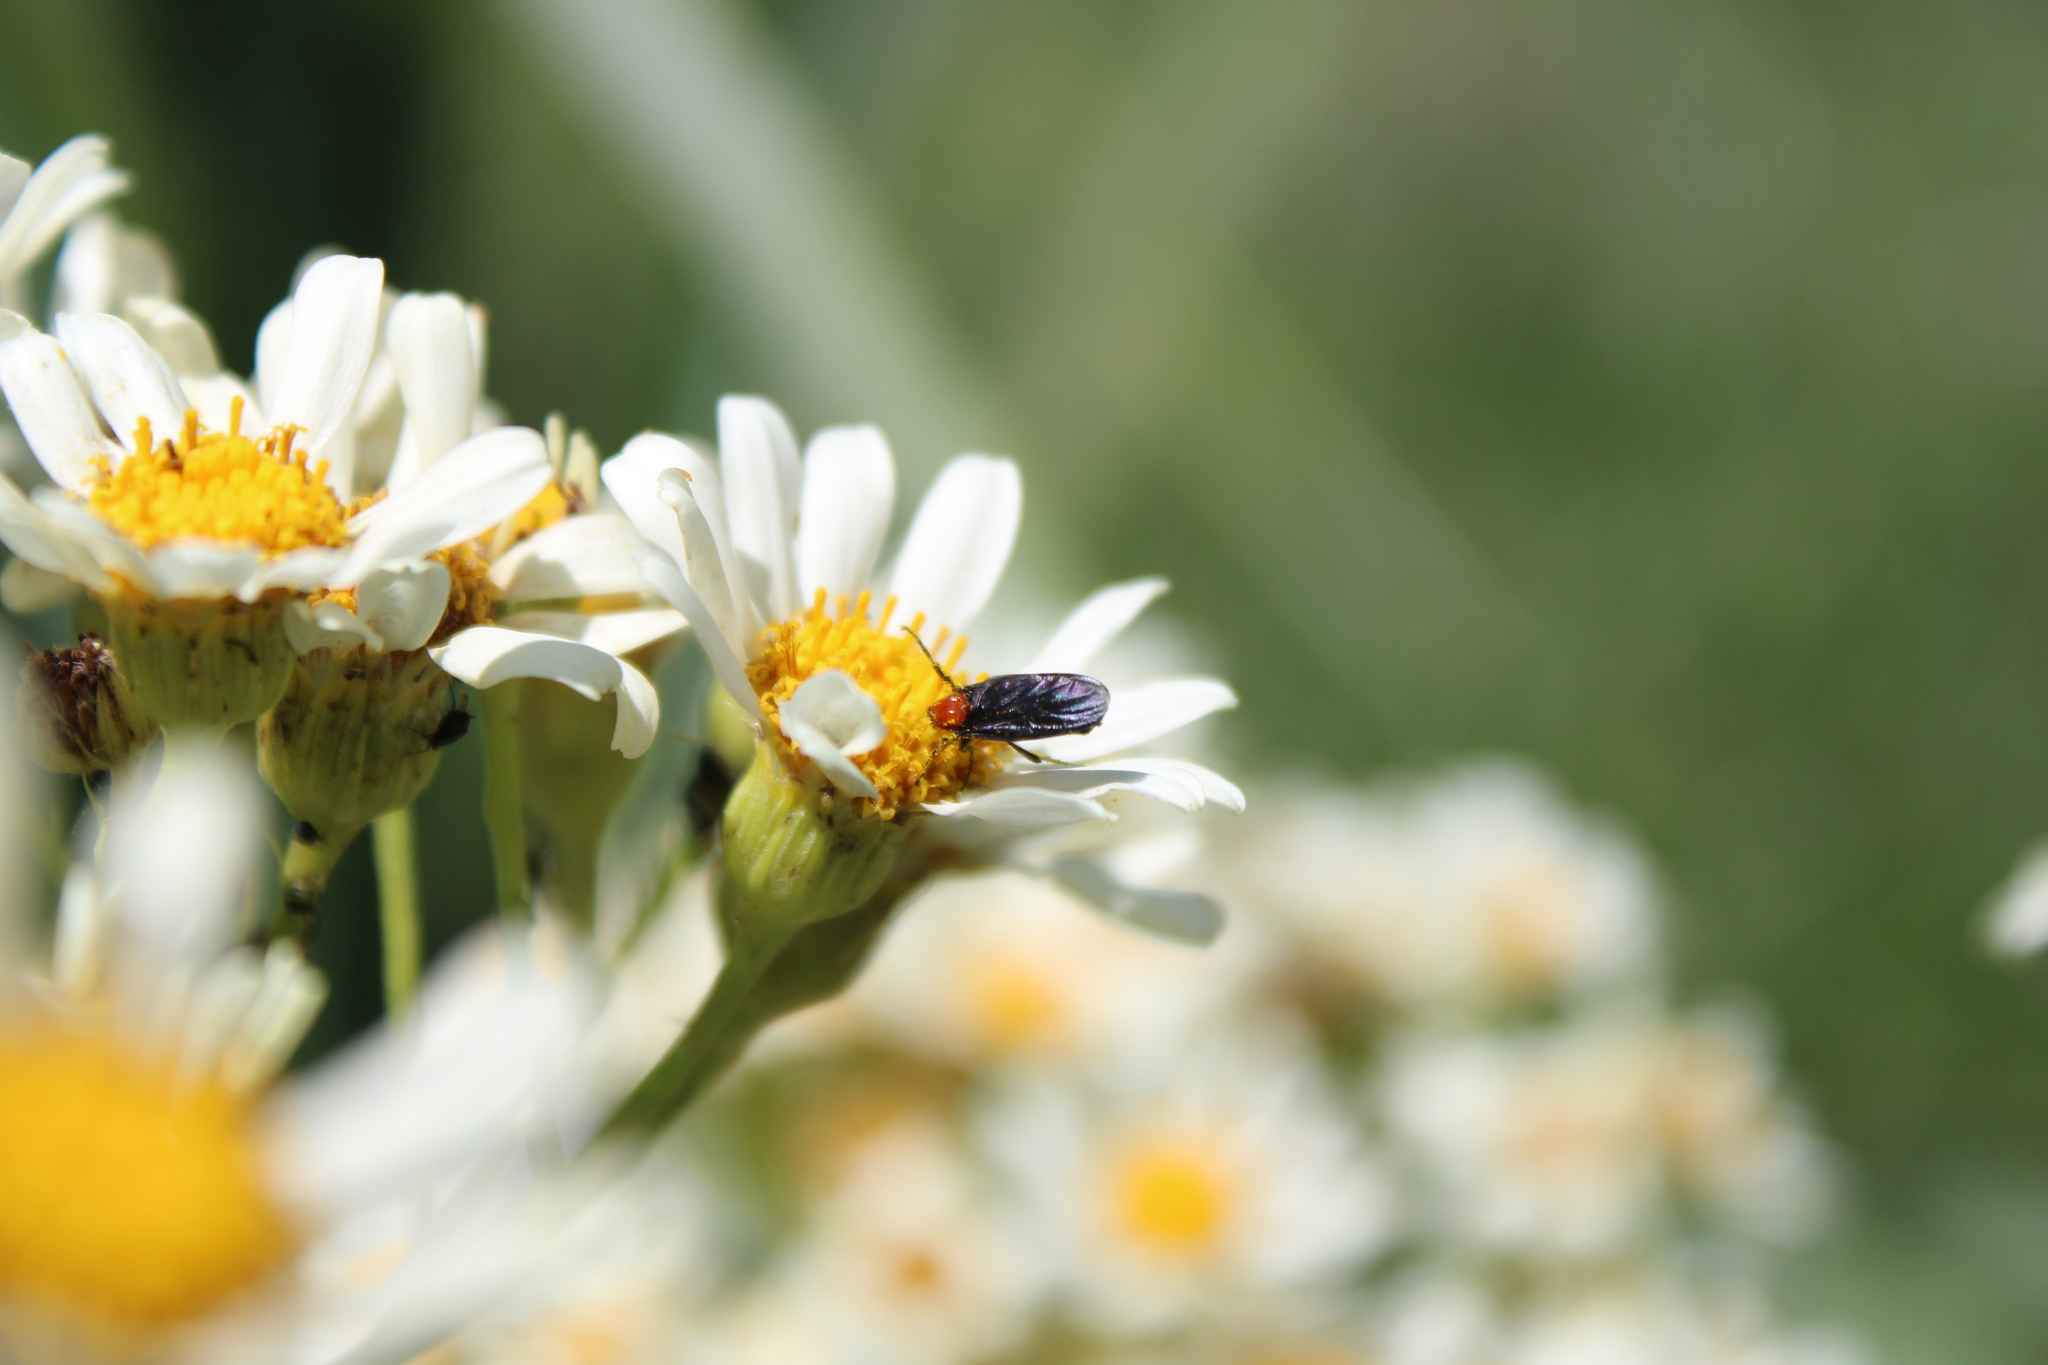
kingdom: Animalia
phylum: Arthropoda
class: Insecta
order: Diptera
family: Bibionidae
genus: Dilophus
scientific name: Dilophus pectoralis
